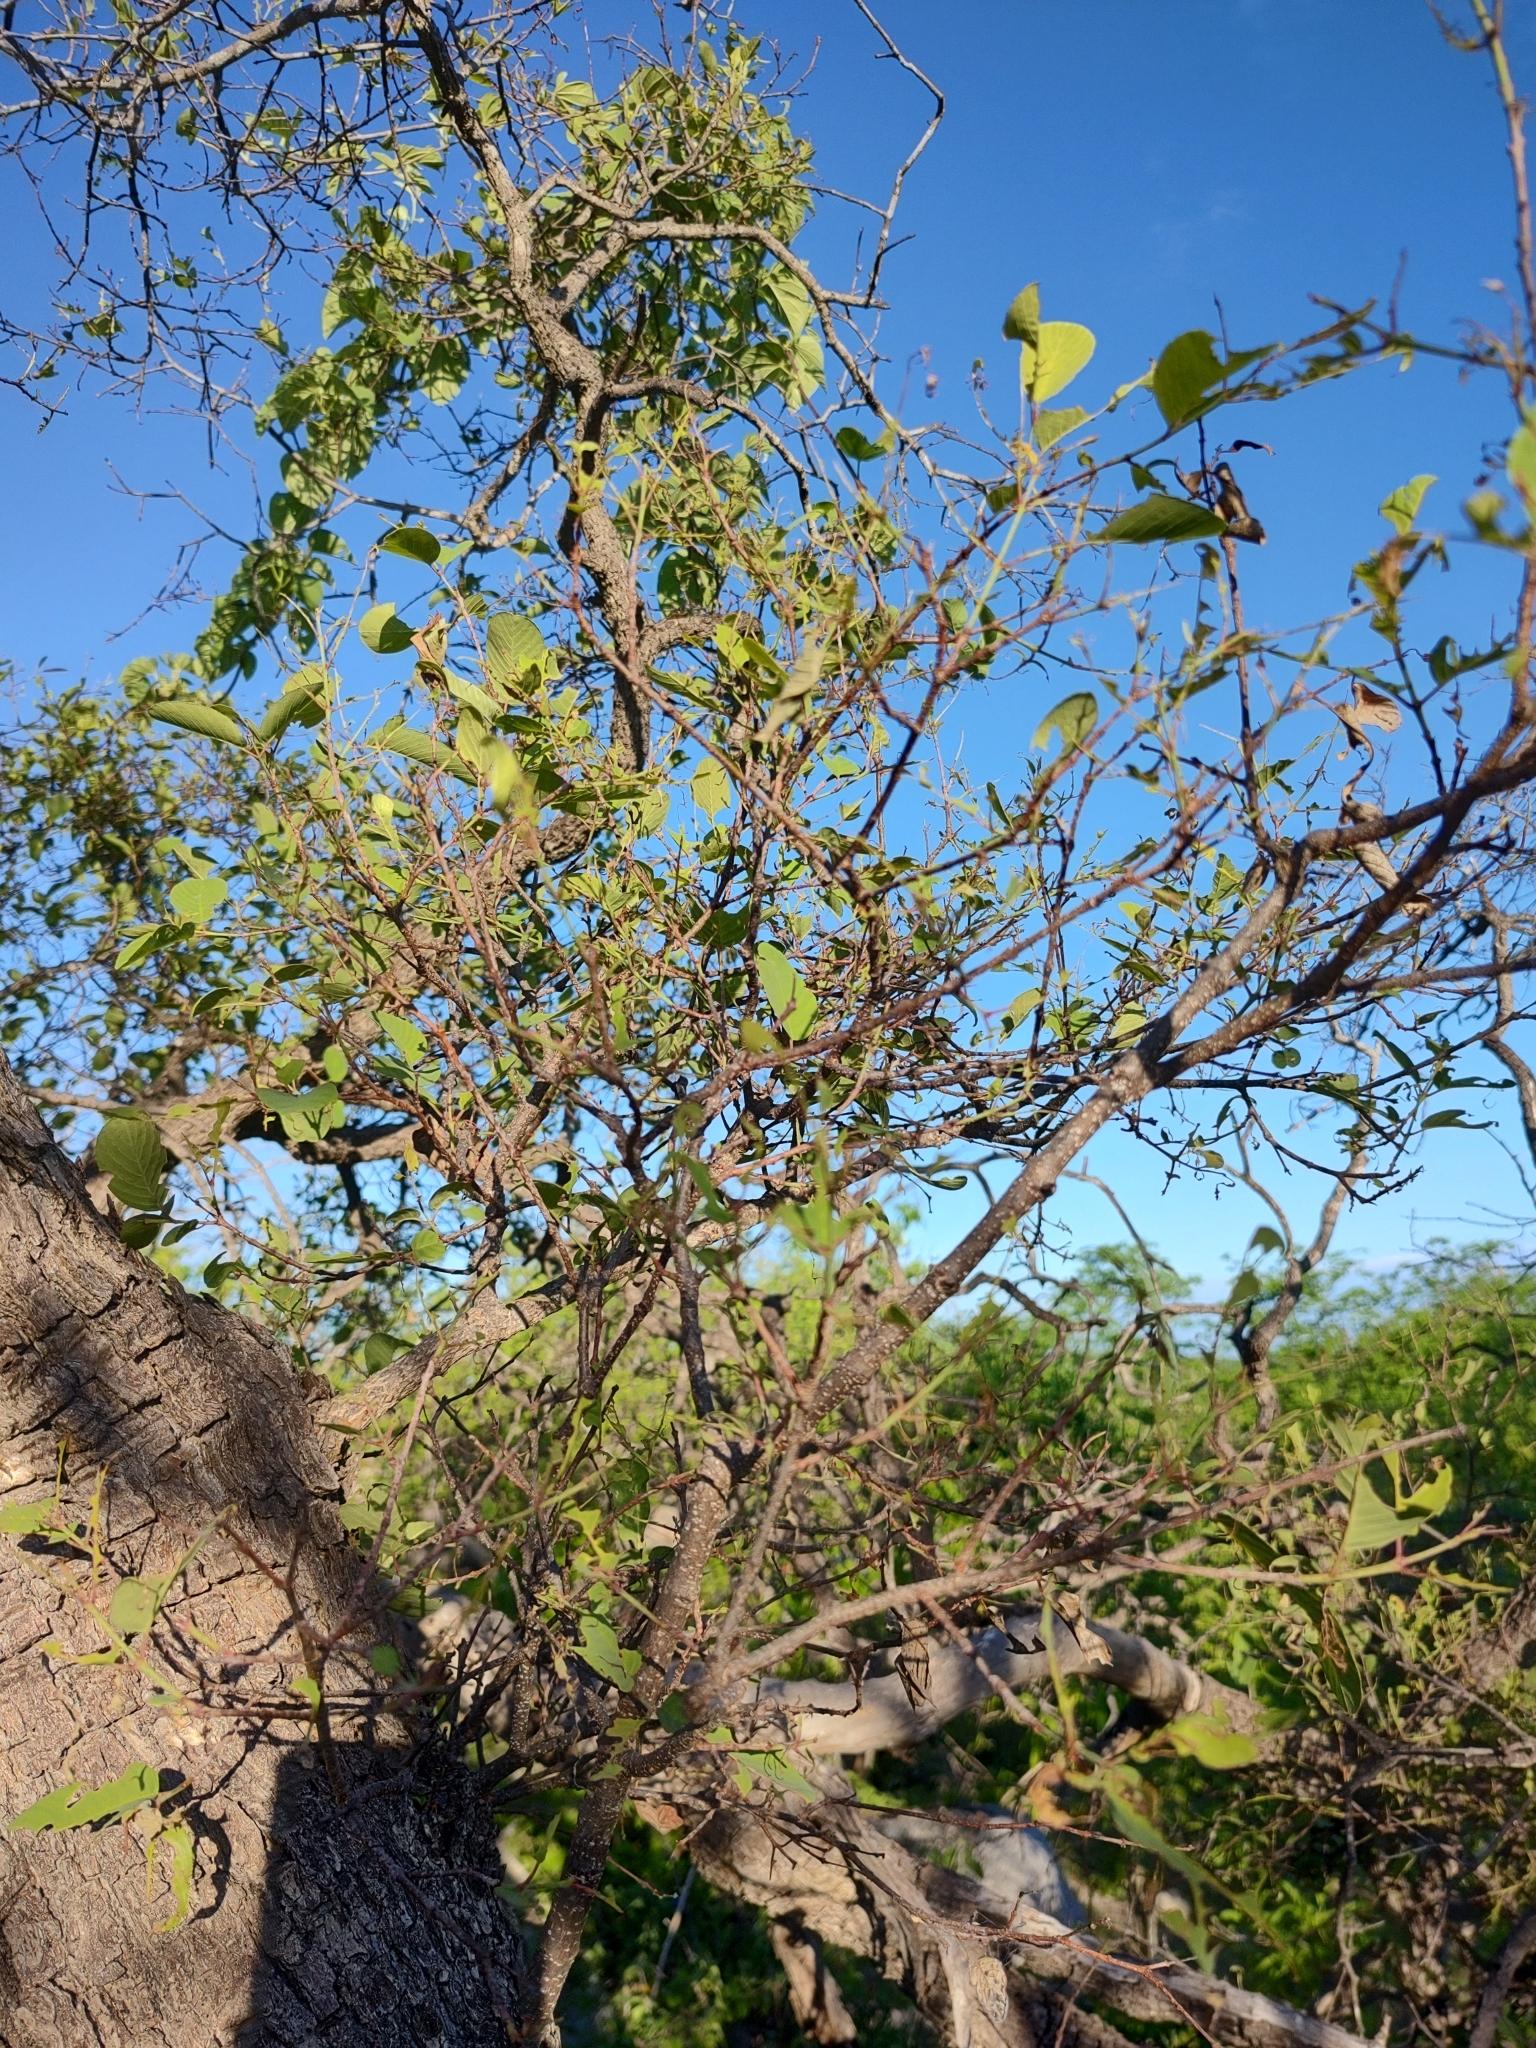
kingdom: Plantae
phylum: Tracheophyta
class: Magnoliopsida
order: Rosales
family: Rhamnaceae
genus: Karwinskia
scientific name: Karwinskia humboldtiana
